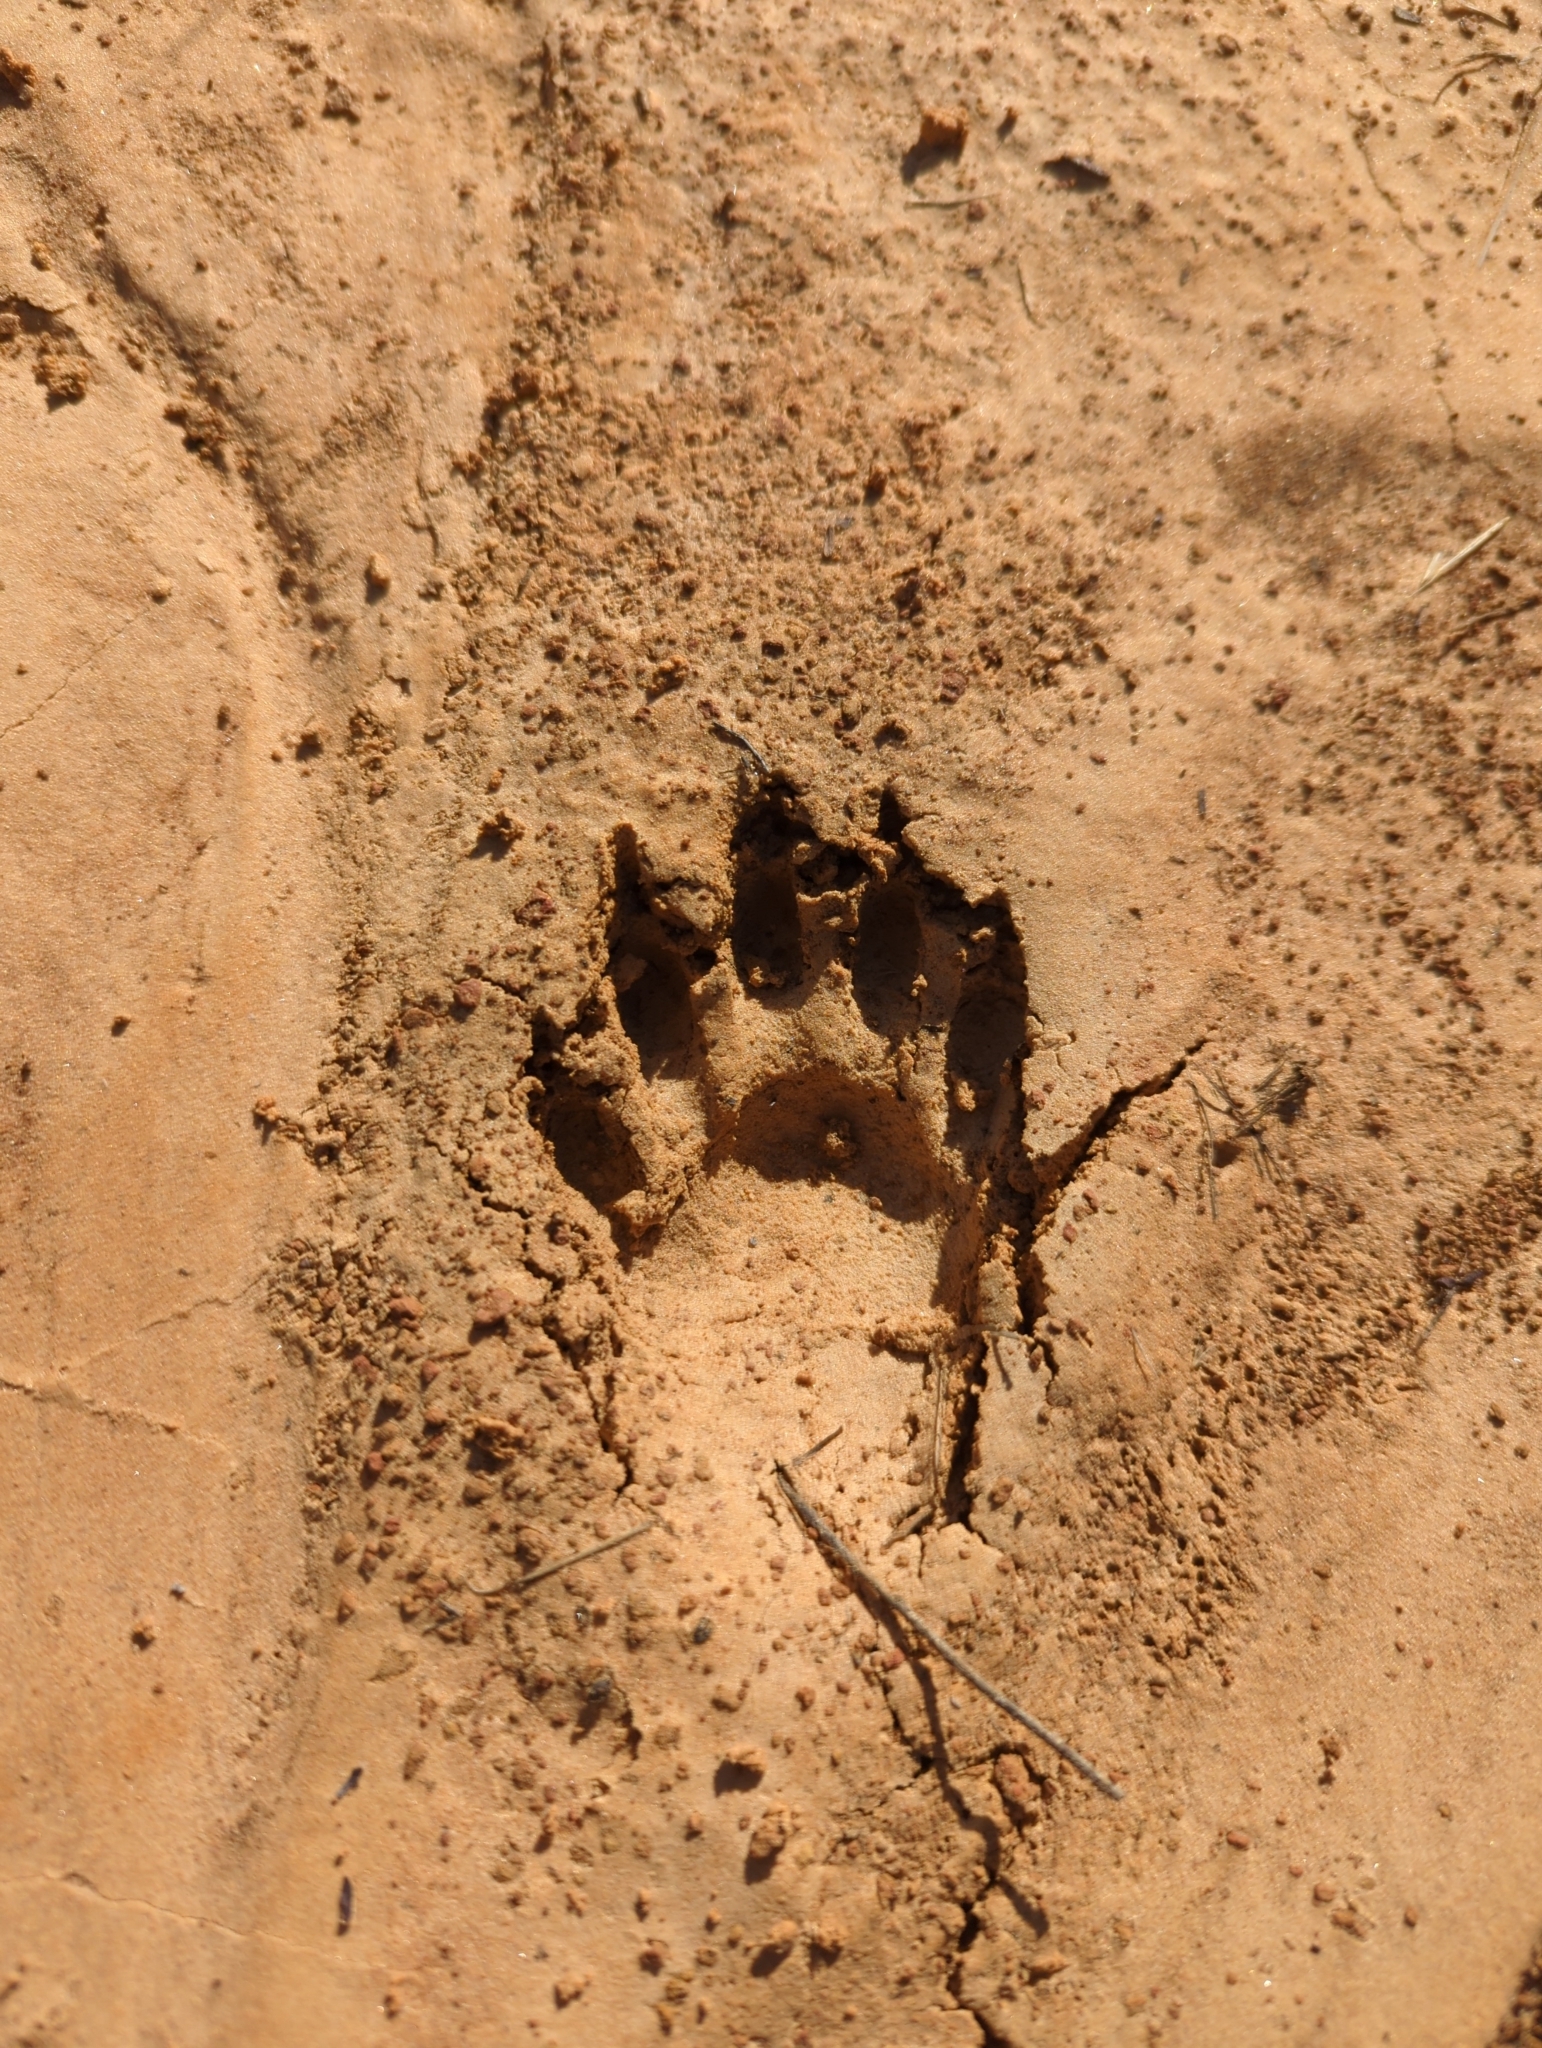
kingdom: Animalia
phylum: Chordata
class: Mammalia
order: Carnivora
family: Procyonidae
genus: Procyon
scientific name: Procyon lotor
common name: Raccoon
